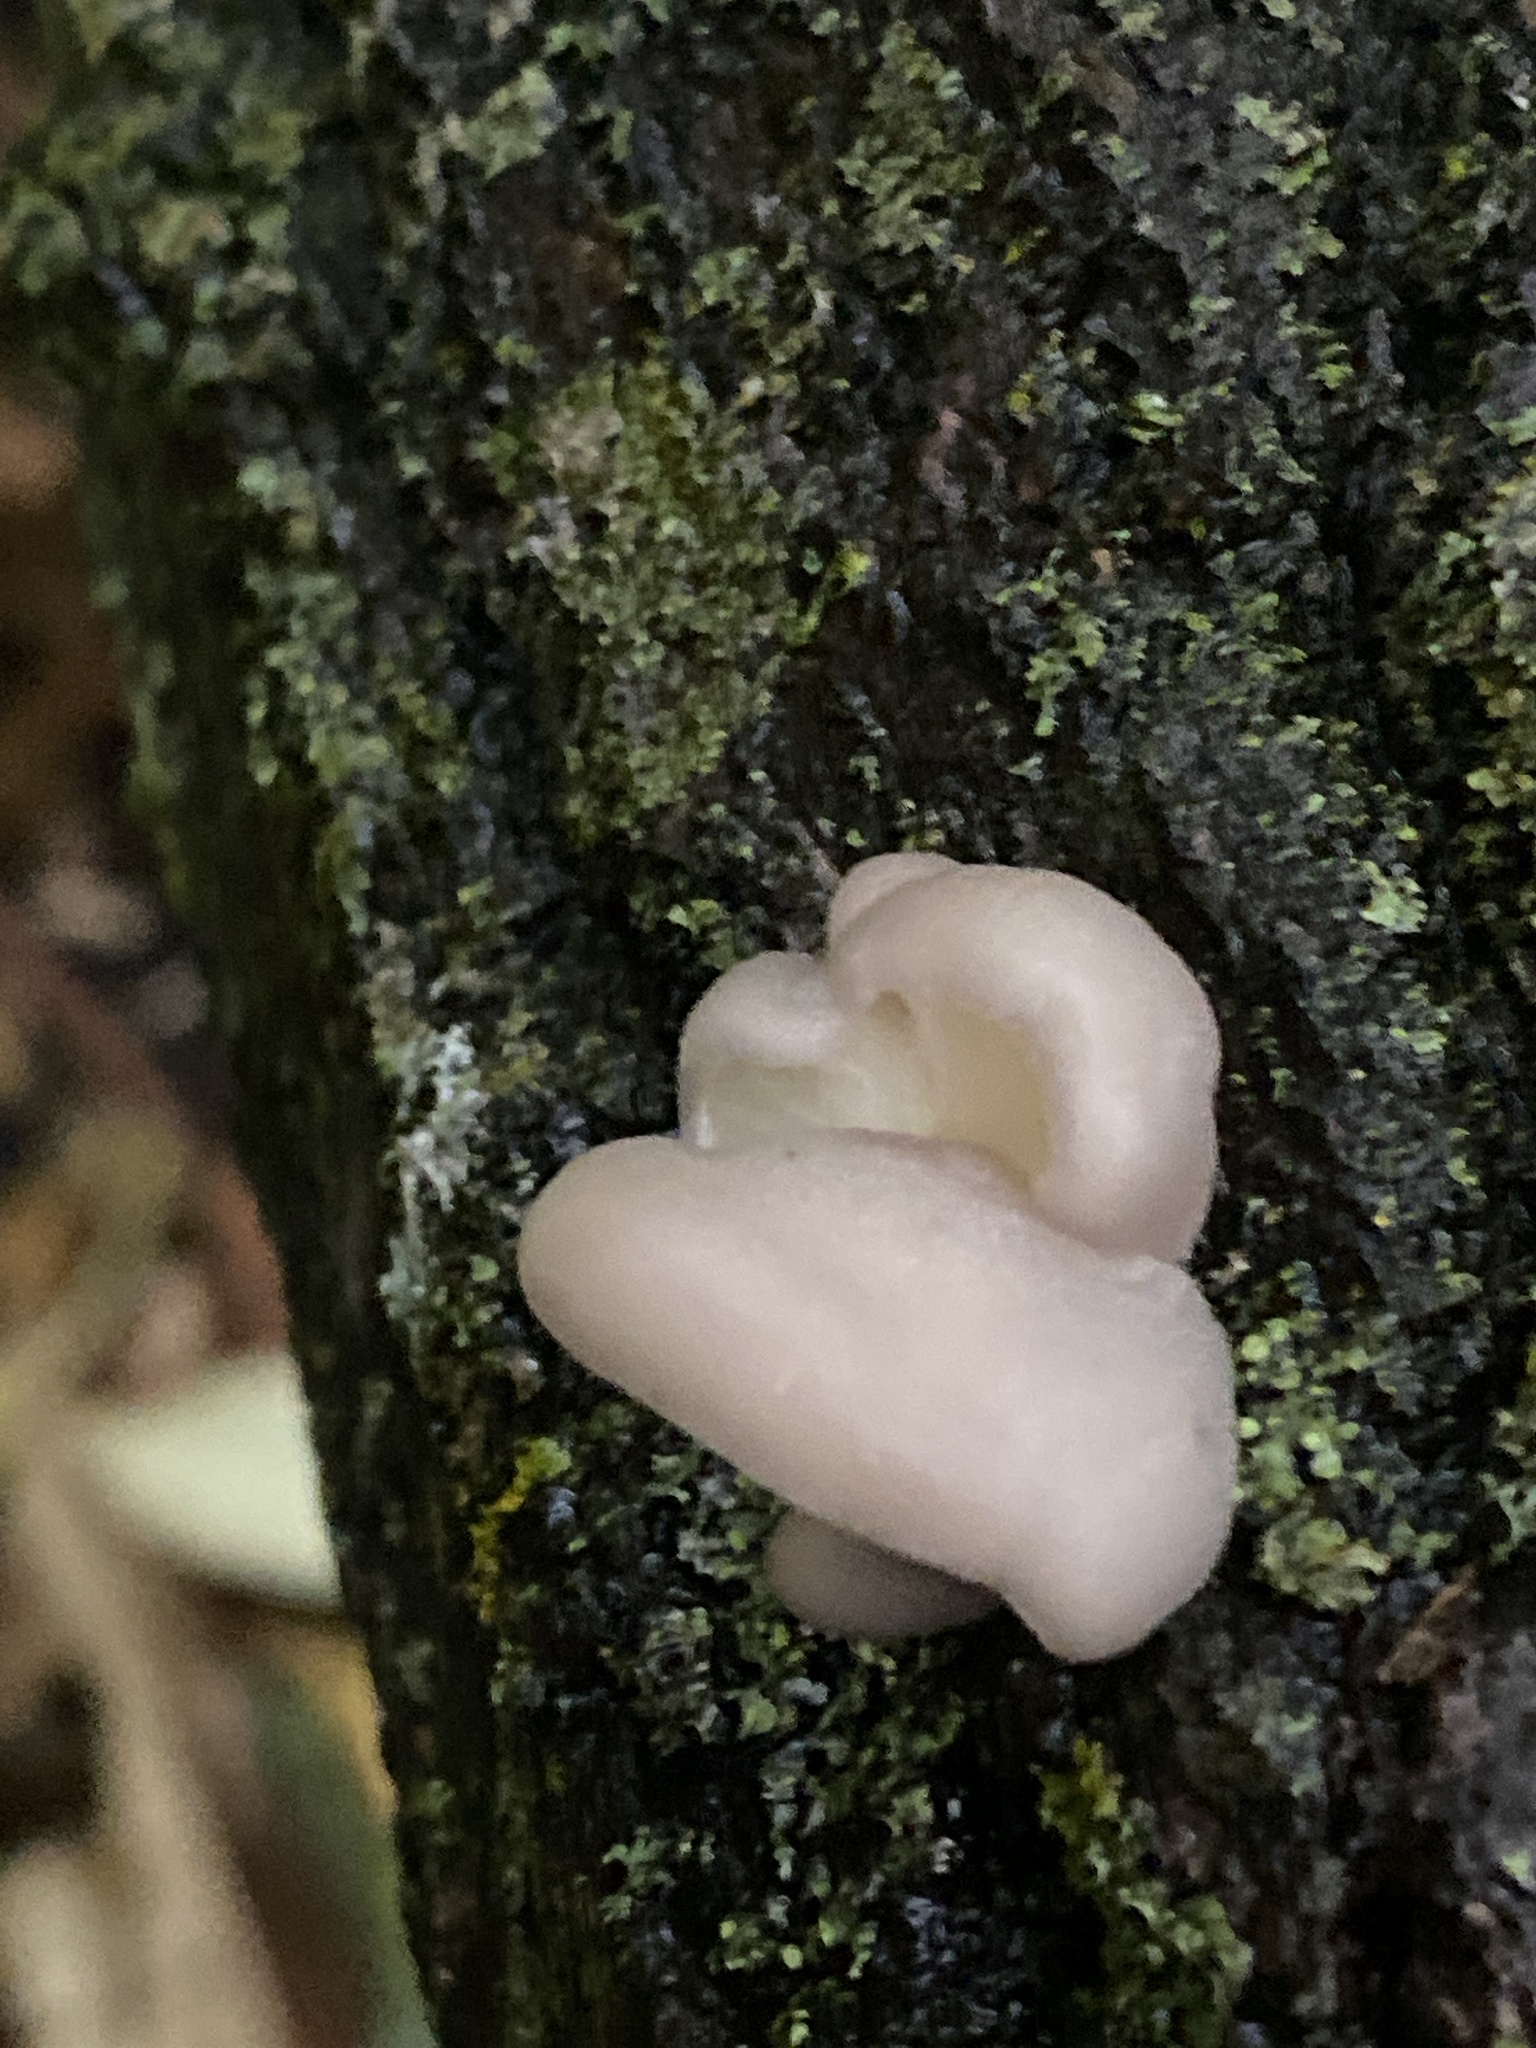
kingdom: Fungi
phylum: Basidiomycota
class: Agaricomycetes
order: Agaricales
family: Pleurotaceae
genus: Pleurotus
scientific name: Pleurotus ostreatus
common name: Oyster mushroom
